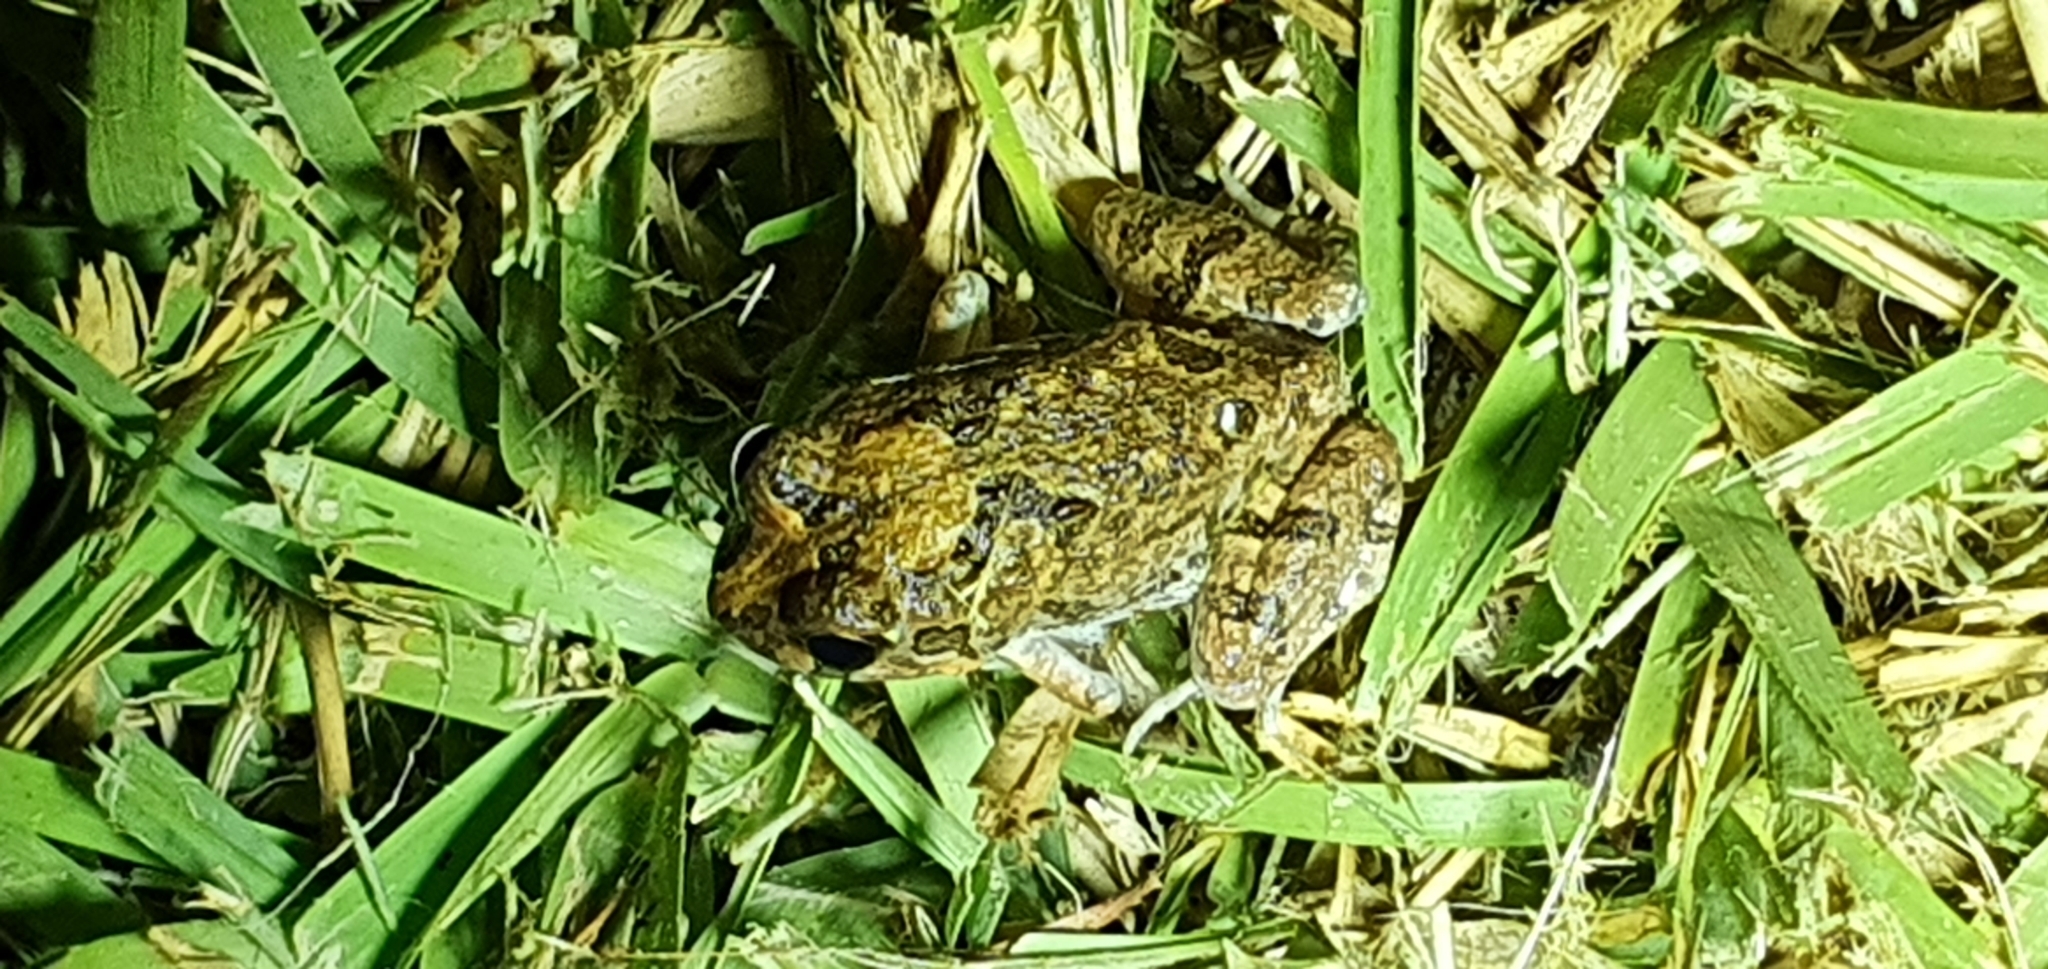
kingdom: Animalia
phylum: Chordata
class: Amphibia
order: Anura
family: Limnodynastidae
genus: Platyplectrum
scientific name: Platyplectrum ornatum
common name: Ornate burrowing frog
